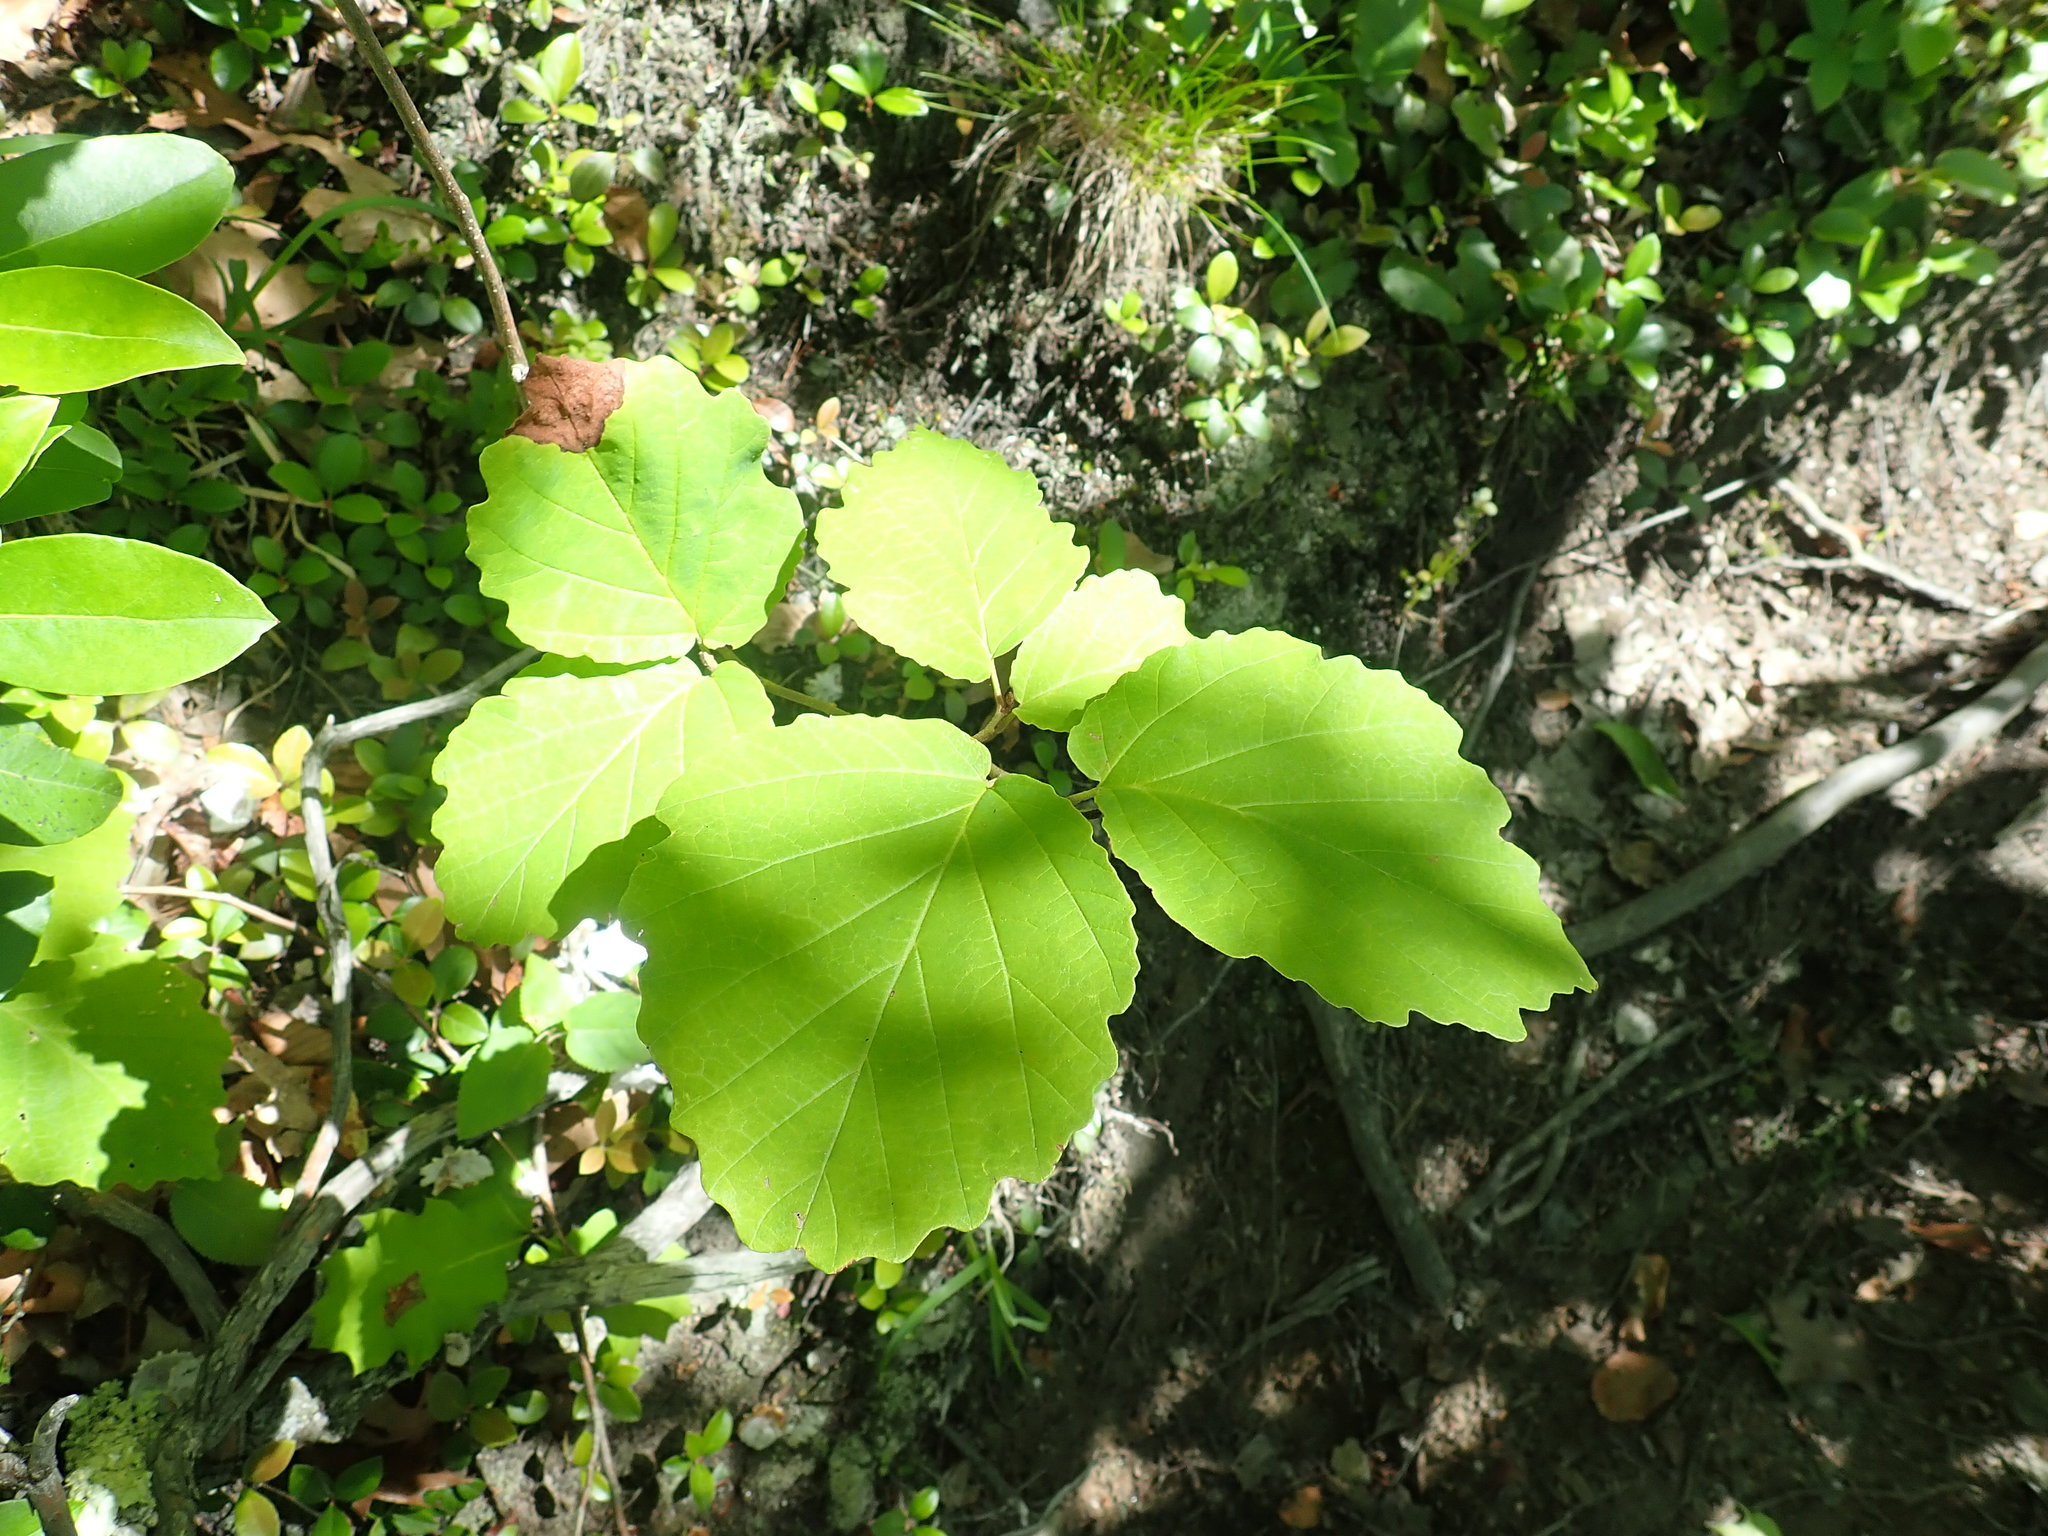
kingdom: Plantae
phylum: Tracheophyta
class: Magnoliopsida
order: Saxifragales
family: Hamamelidaceae
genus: Hamamelis
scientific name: Hamamelis virginiana
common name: Witch-hazel
